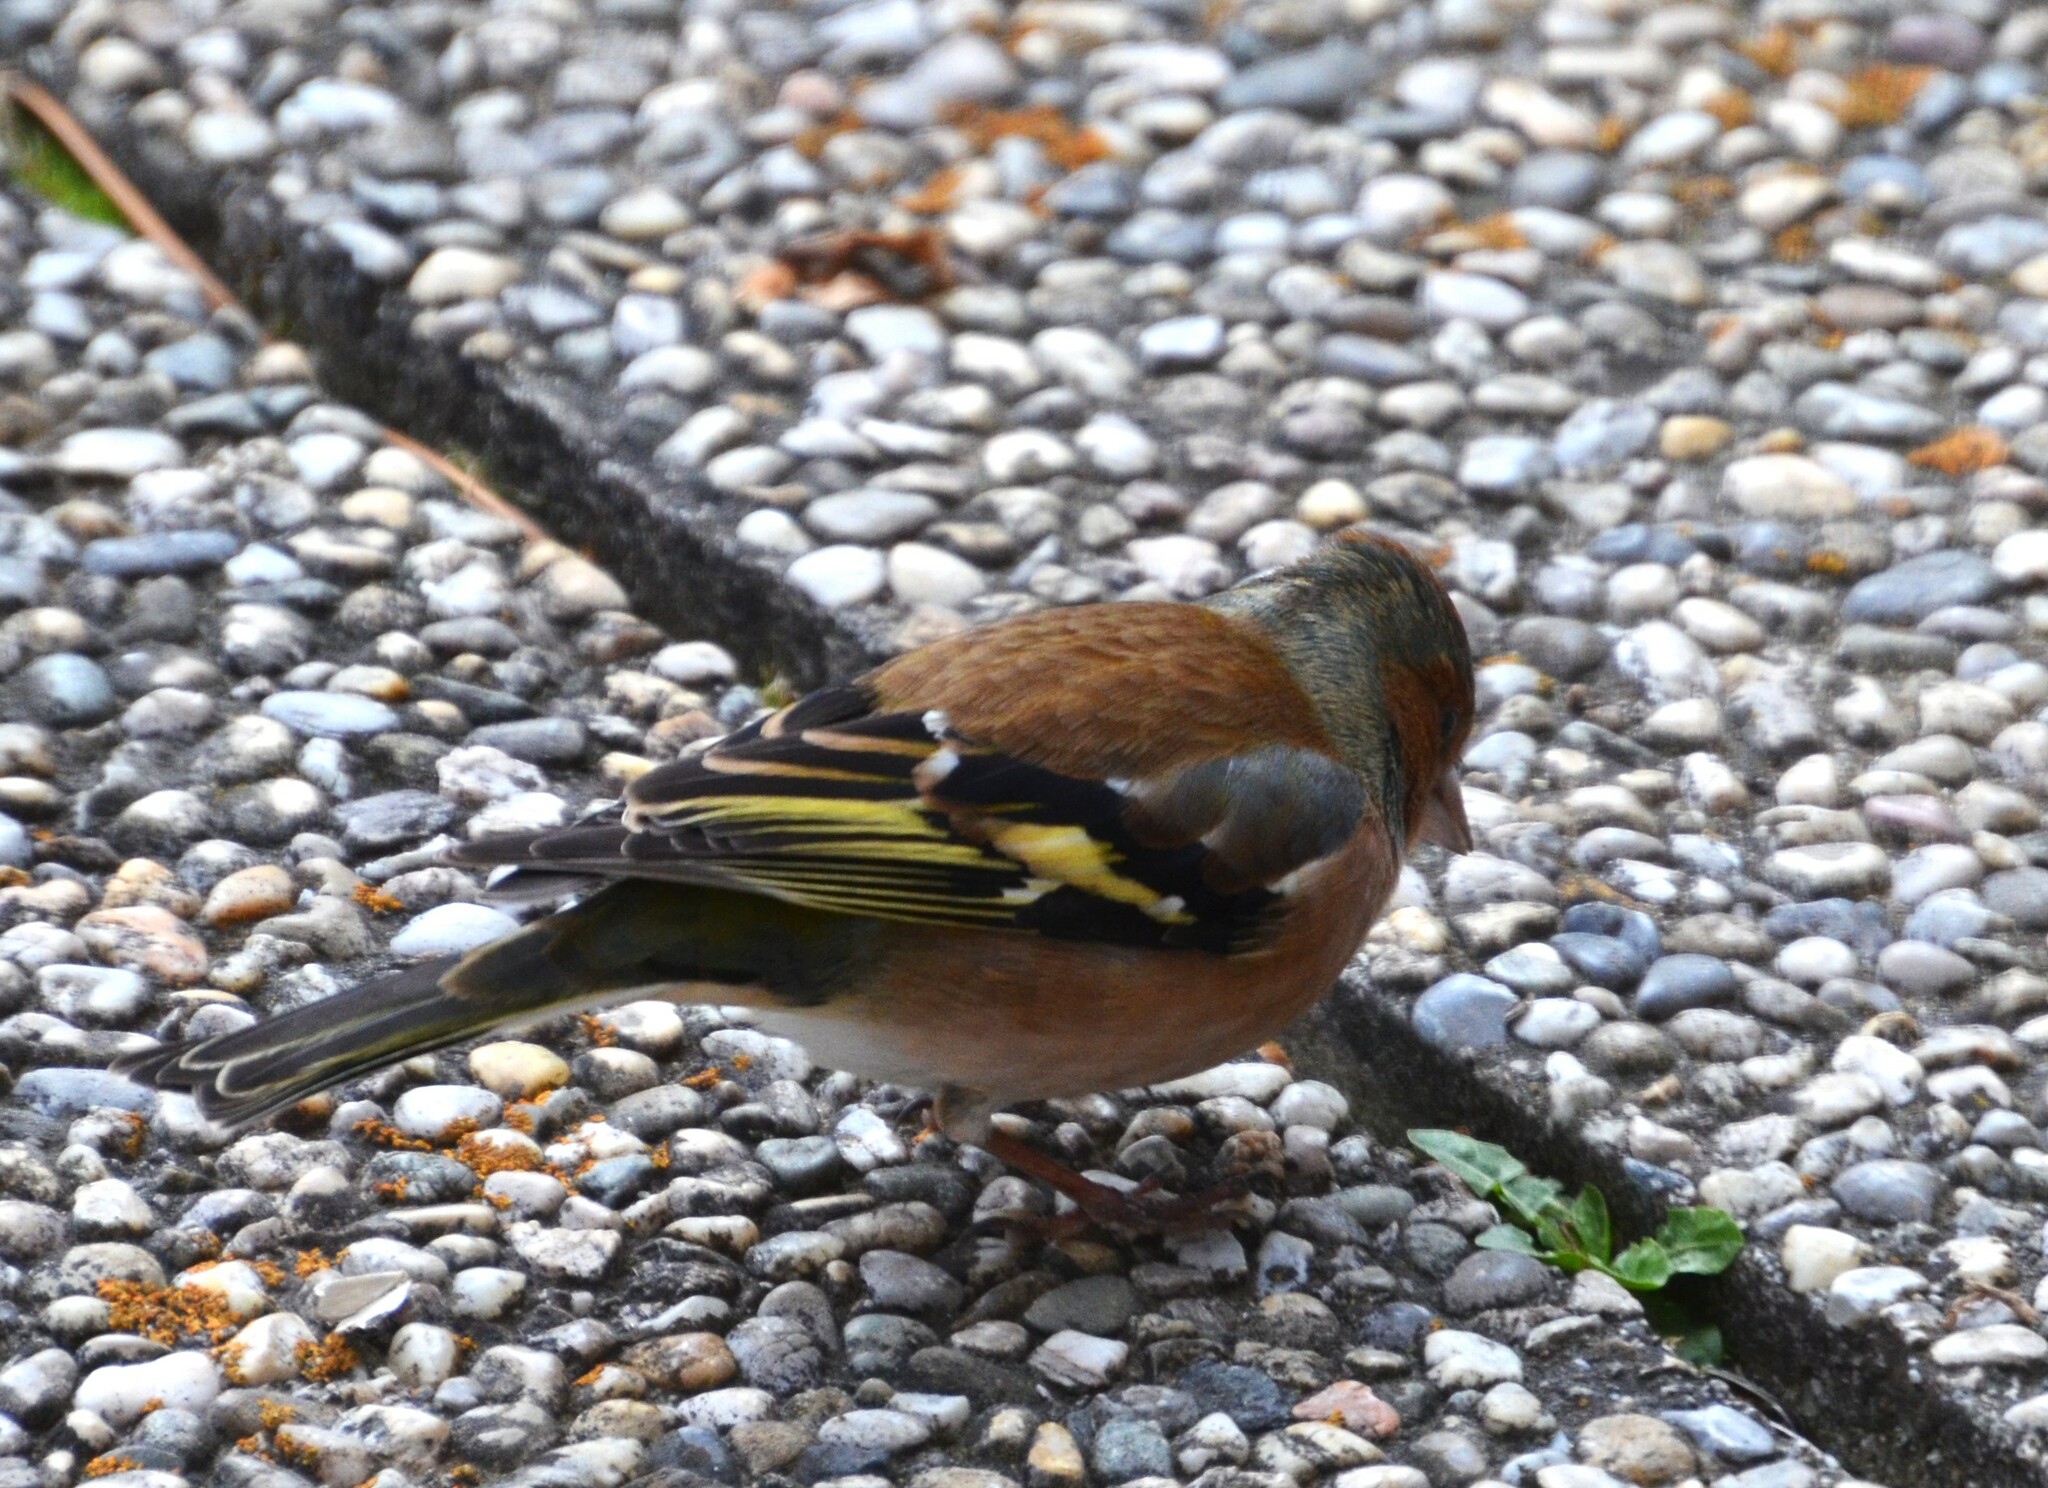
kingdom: Animalia
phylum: Chordata
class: Aves
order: Passeriformes
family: Fringillidae
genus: Fringilla
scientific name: Fringilla coelebs
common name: Common chaffinch
